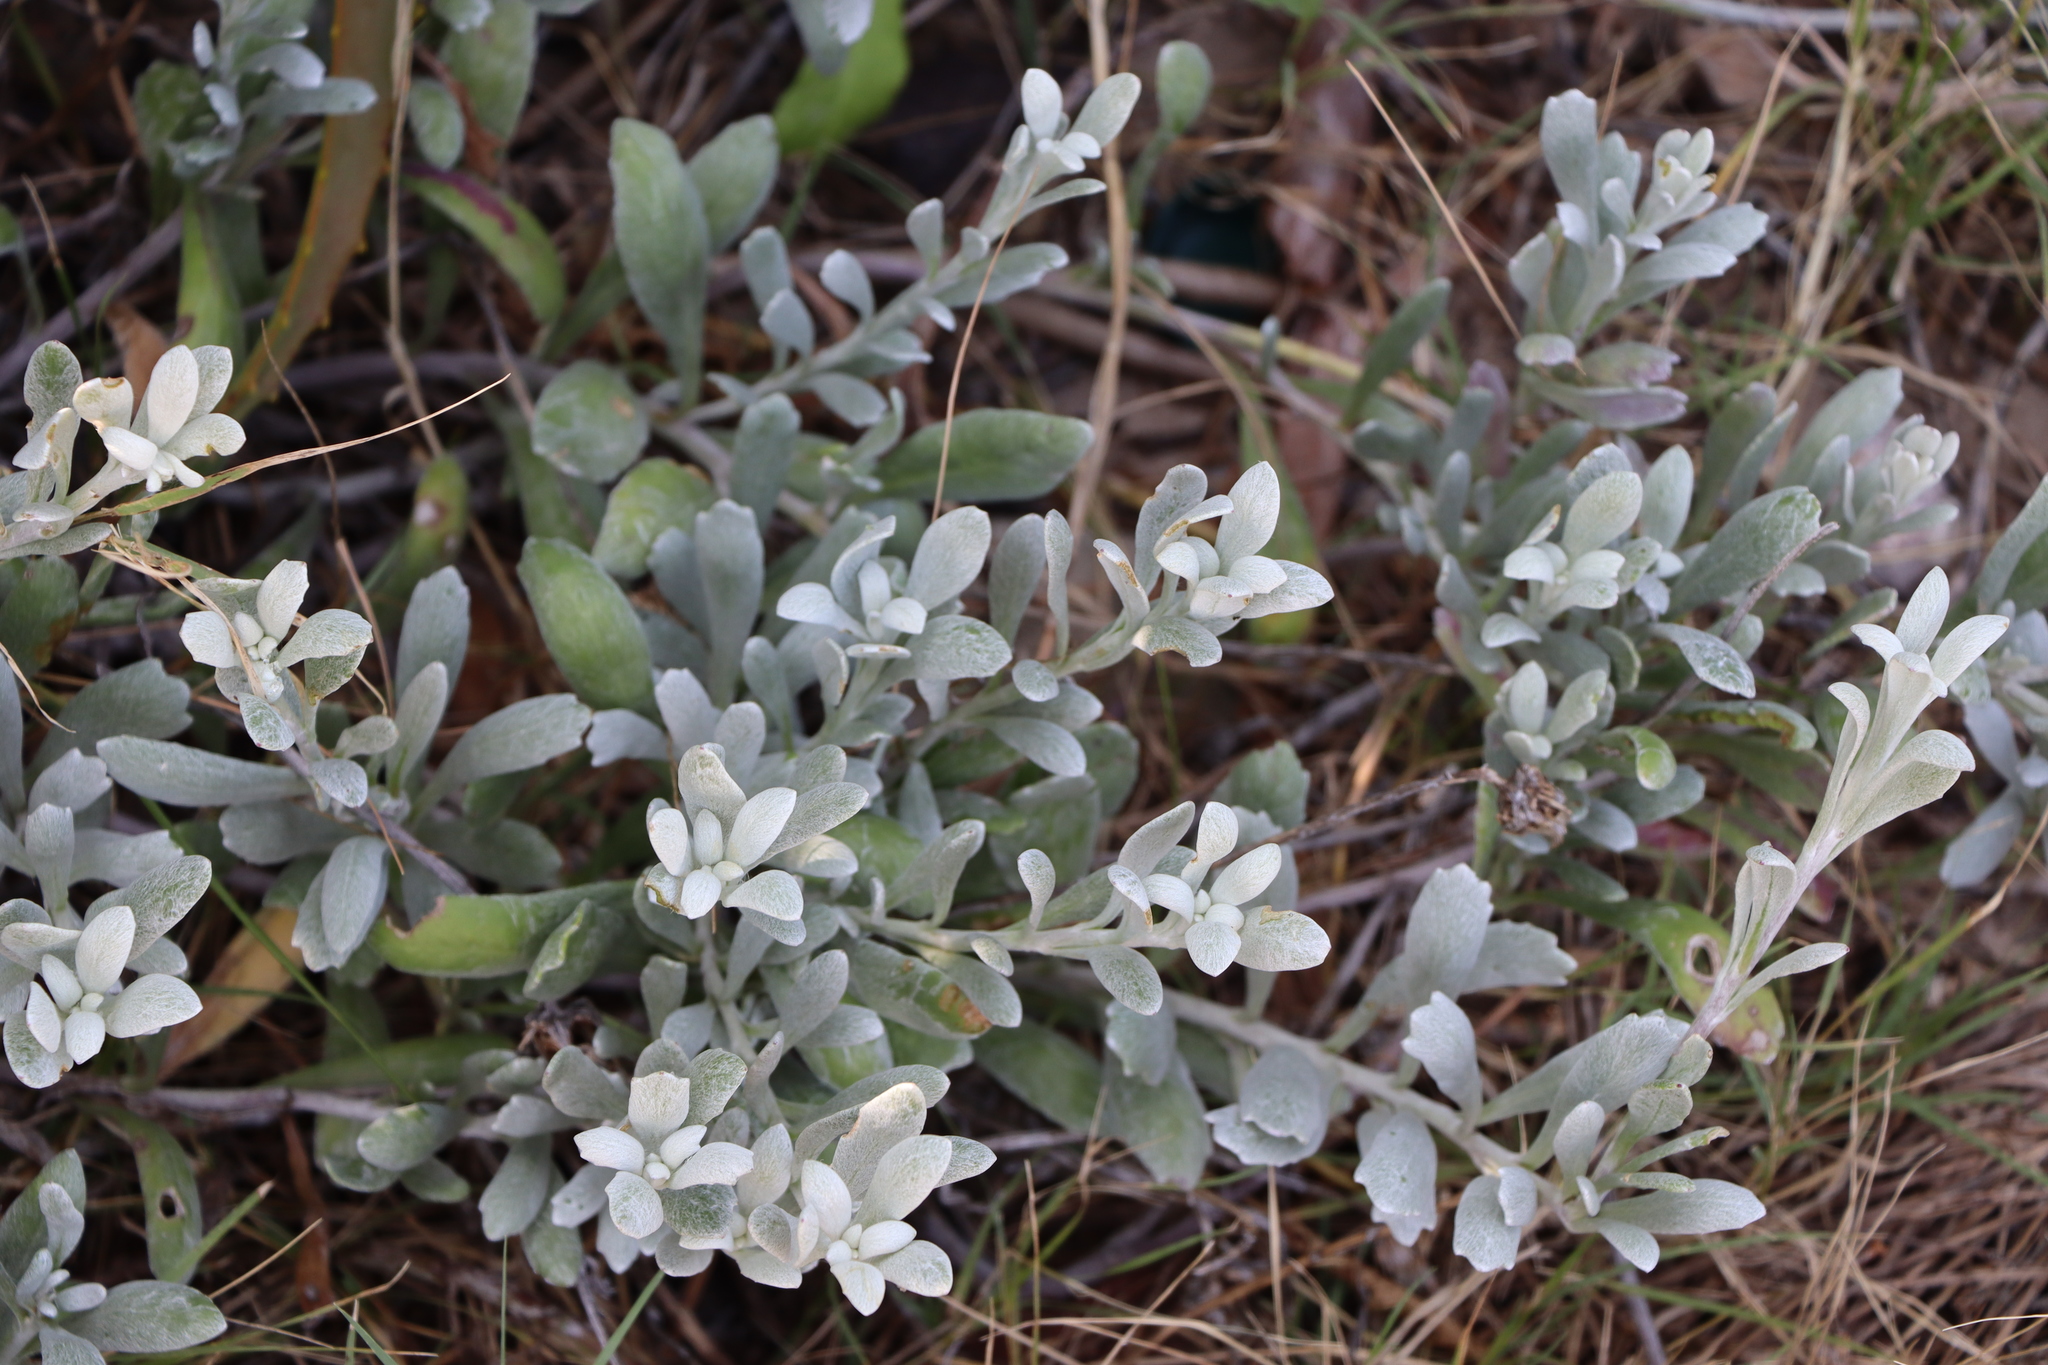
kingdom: Plantae
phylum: Tracheophyta
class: Magnoliopsida
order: Asterales
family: Asteraceae
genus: Senecio
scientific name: Senecio crassiflorus
